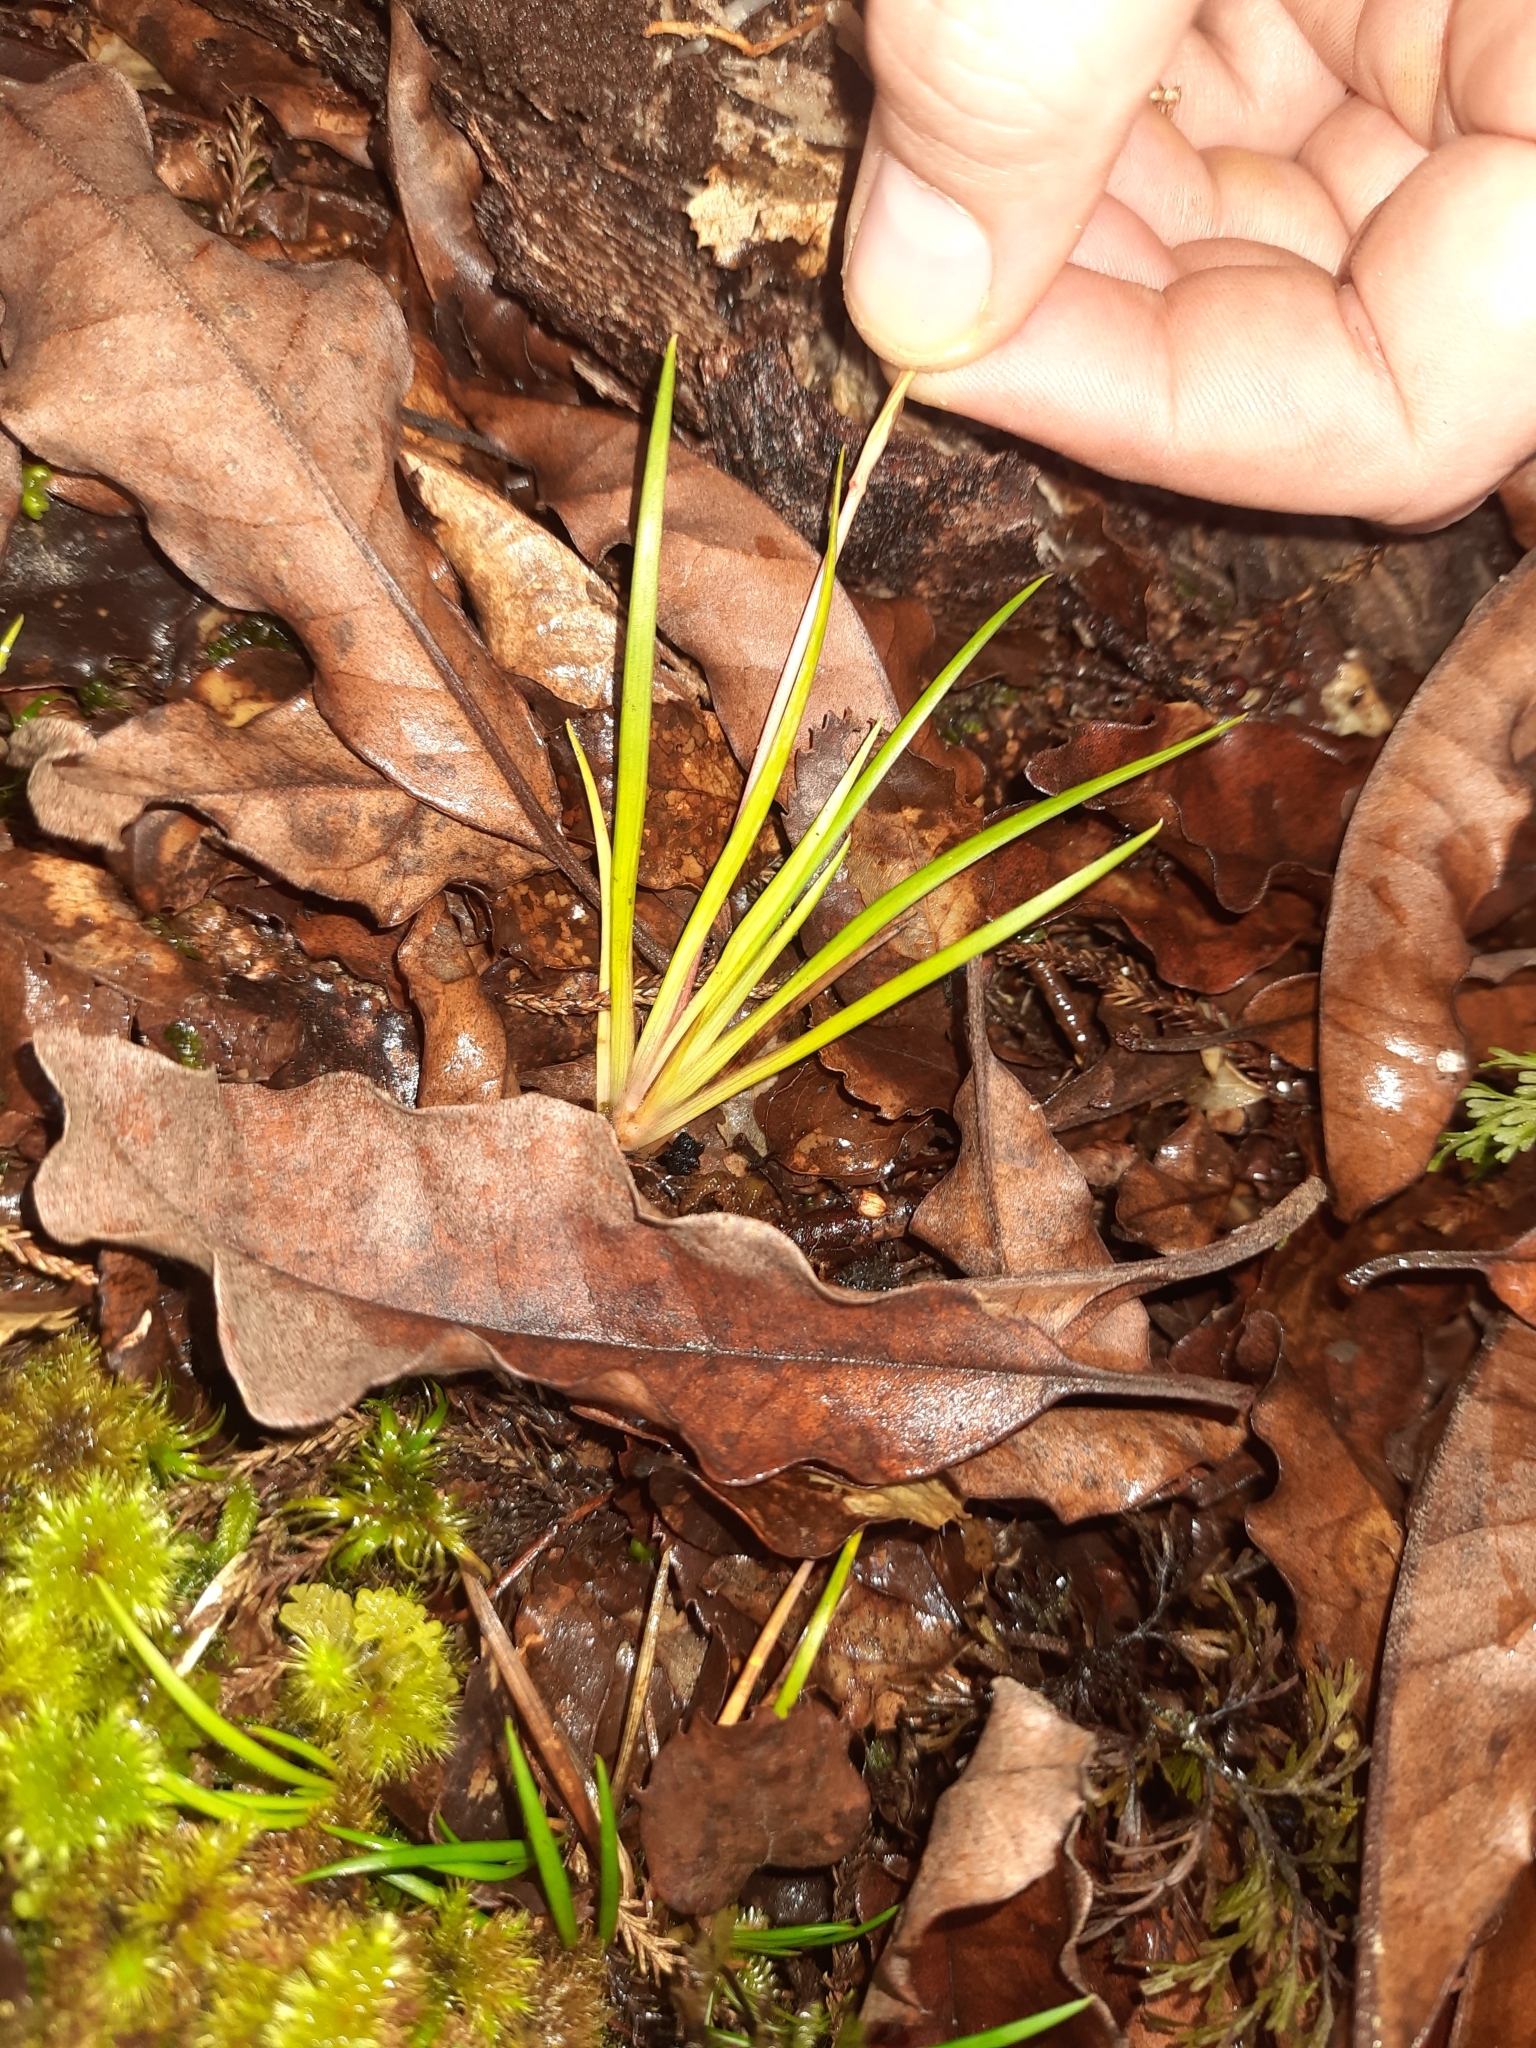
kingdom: Plantae
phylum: Tracheophyta
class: Liliopsida
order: Asparagales
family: Iridaceae
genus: Libertia
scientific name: Libertia micrantha
